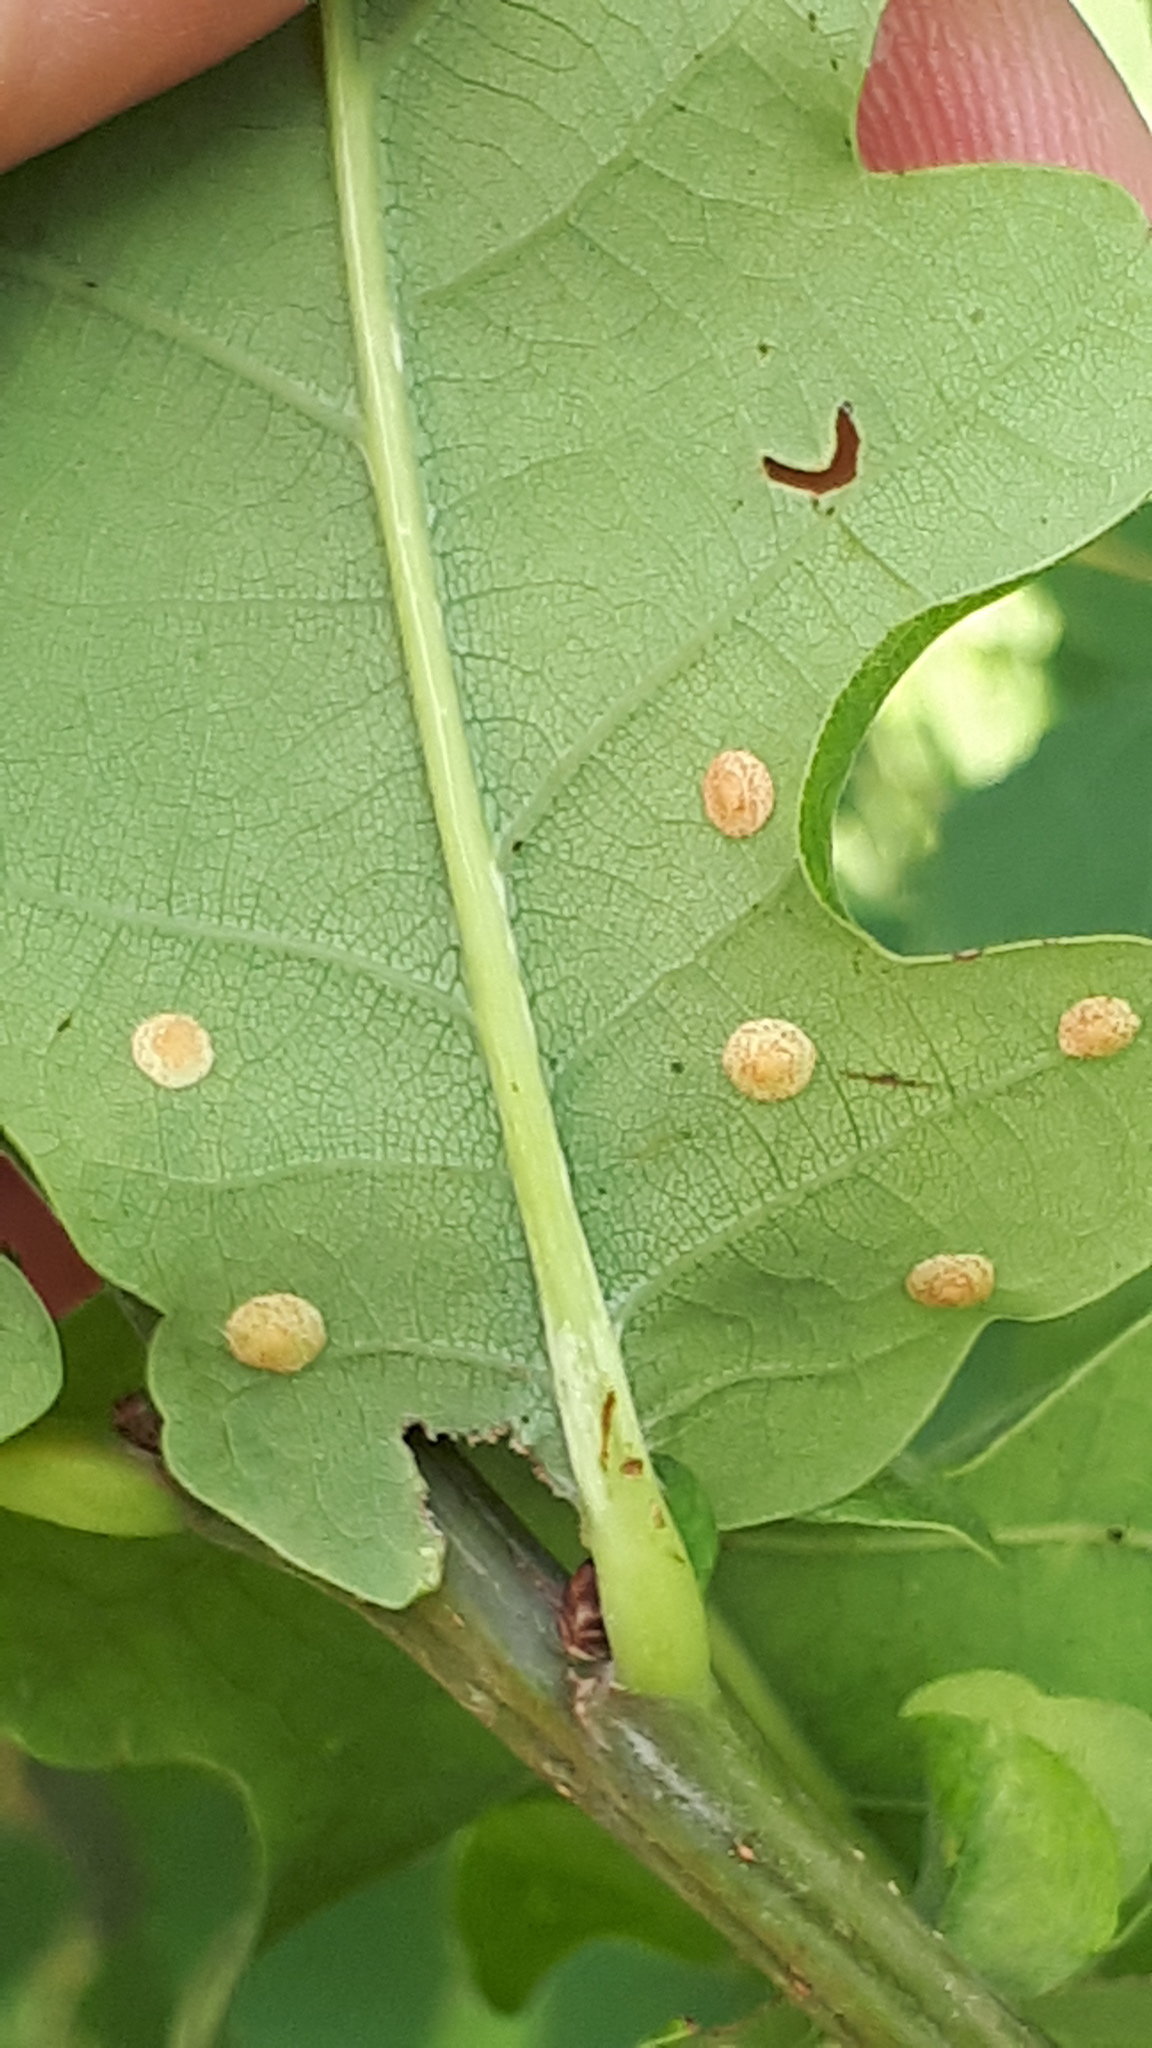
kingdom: Animalia
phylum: Arthropoda
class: Insecta
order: Hymenoptera
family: Cynipidae
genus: Neuroterus
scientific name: Neuroterus quercusbaccarum
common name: Common spangle gall
